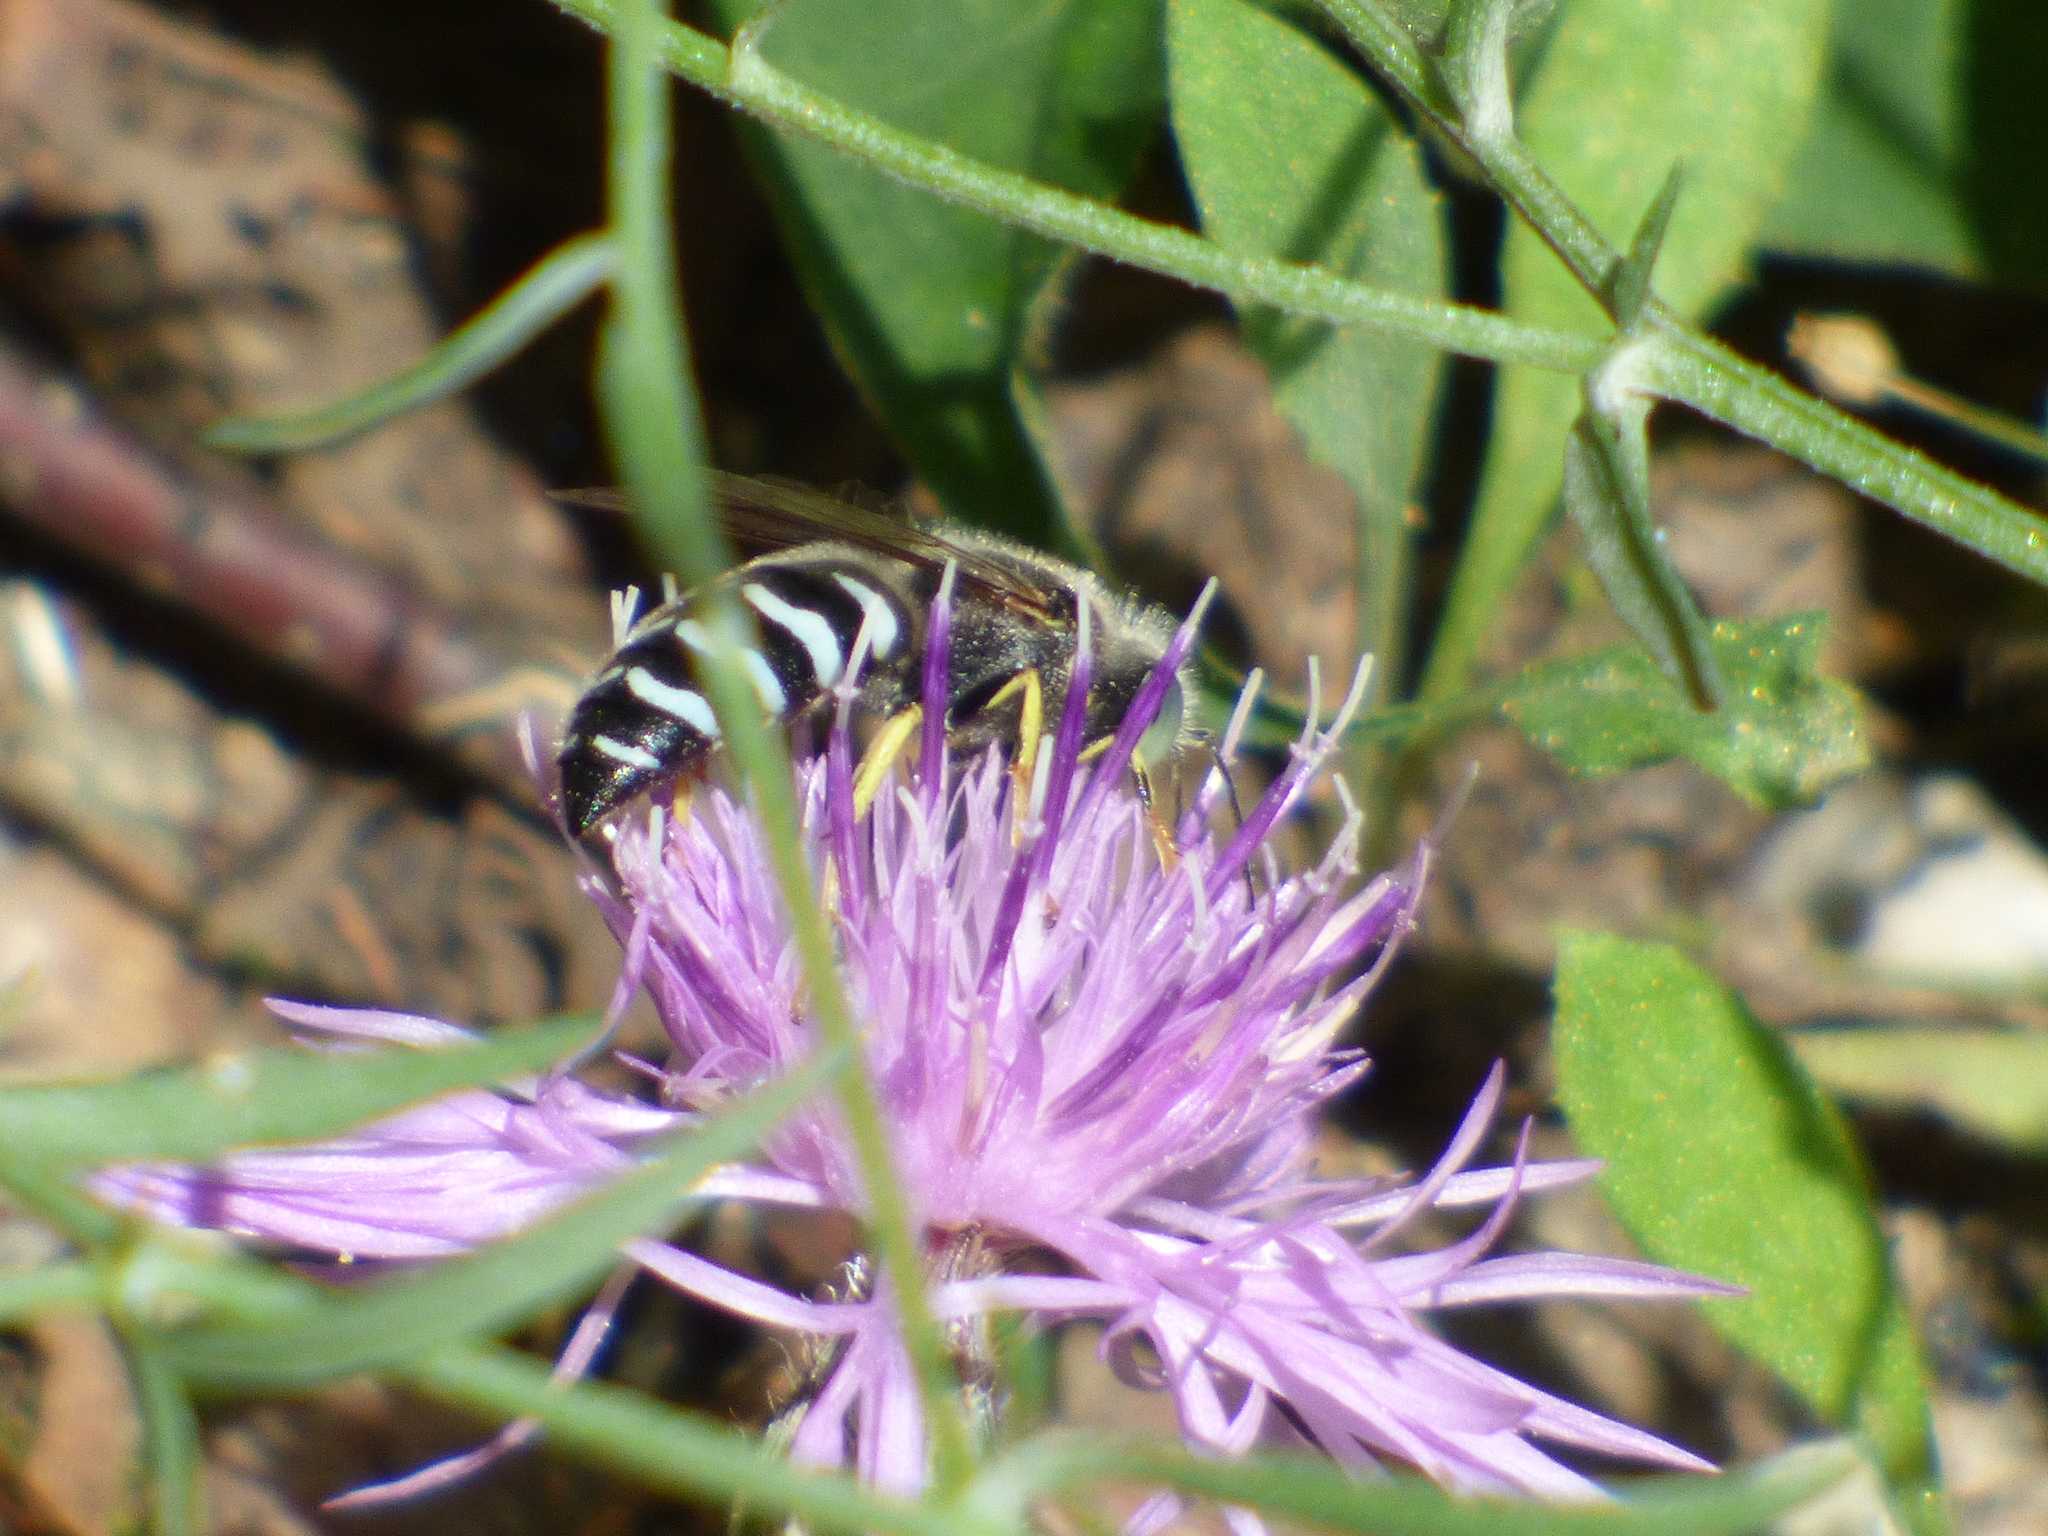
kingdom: Animalia
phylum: Arthropoda
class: Insecta
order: Hymenoptera
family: Crabronidae
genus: Bembix
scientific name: Bembix americana
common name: American sand wasp
